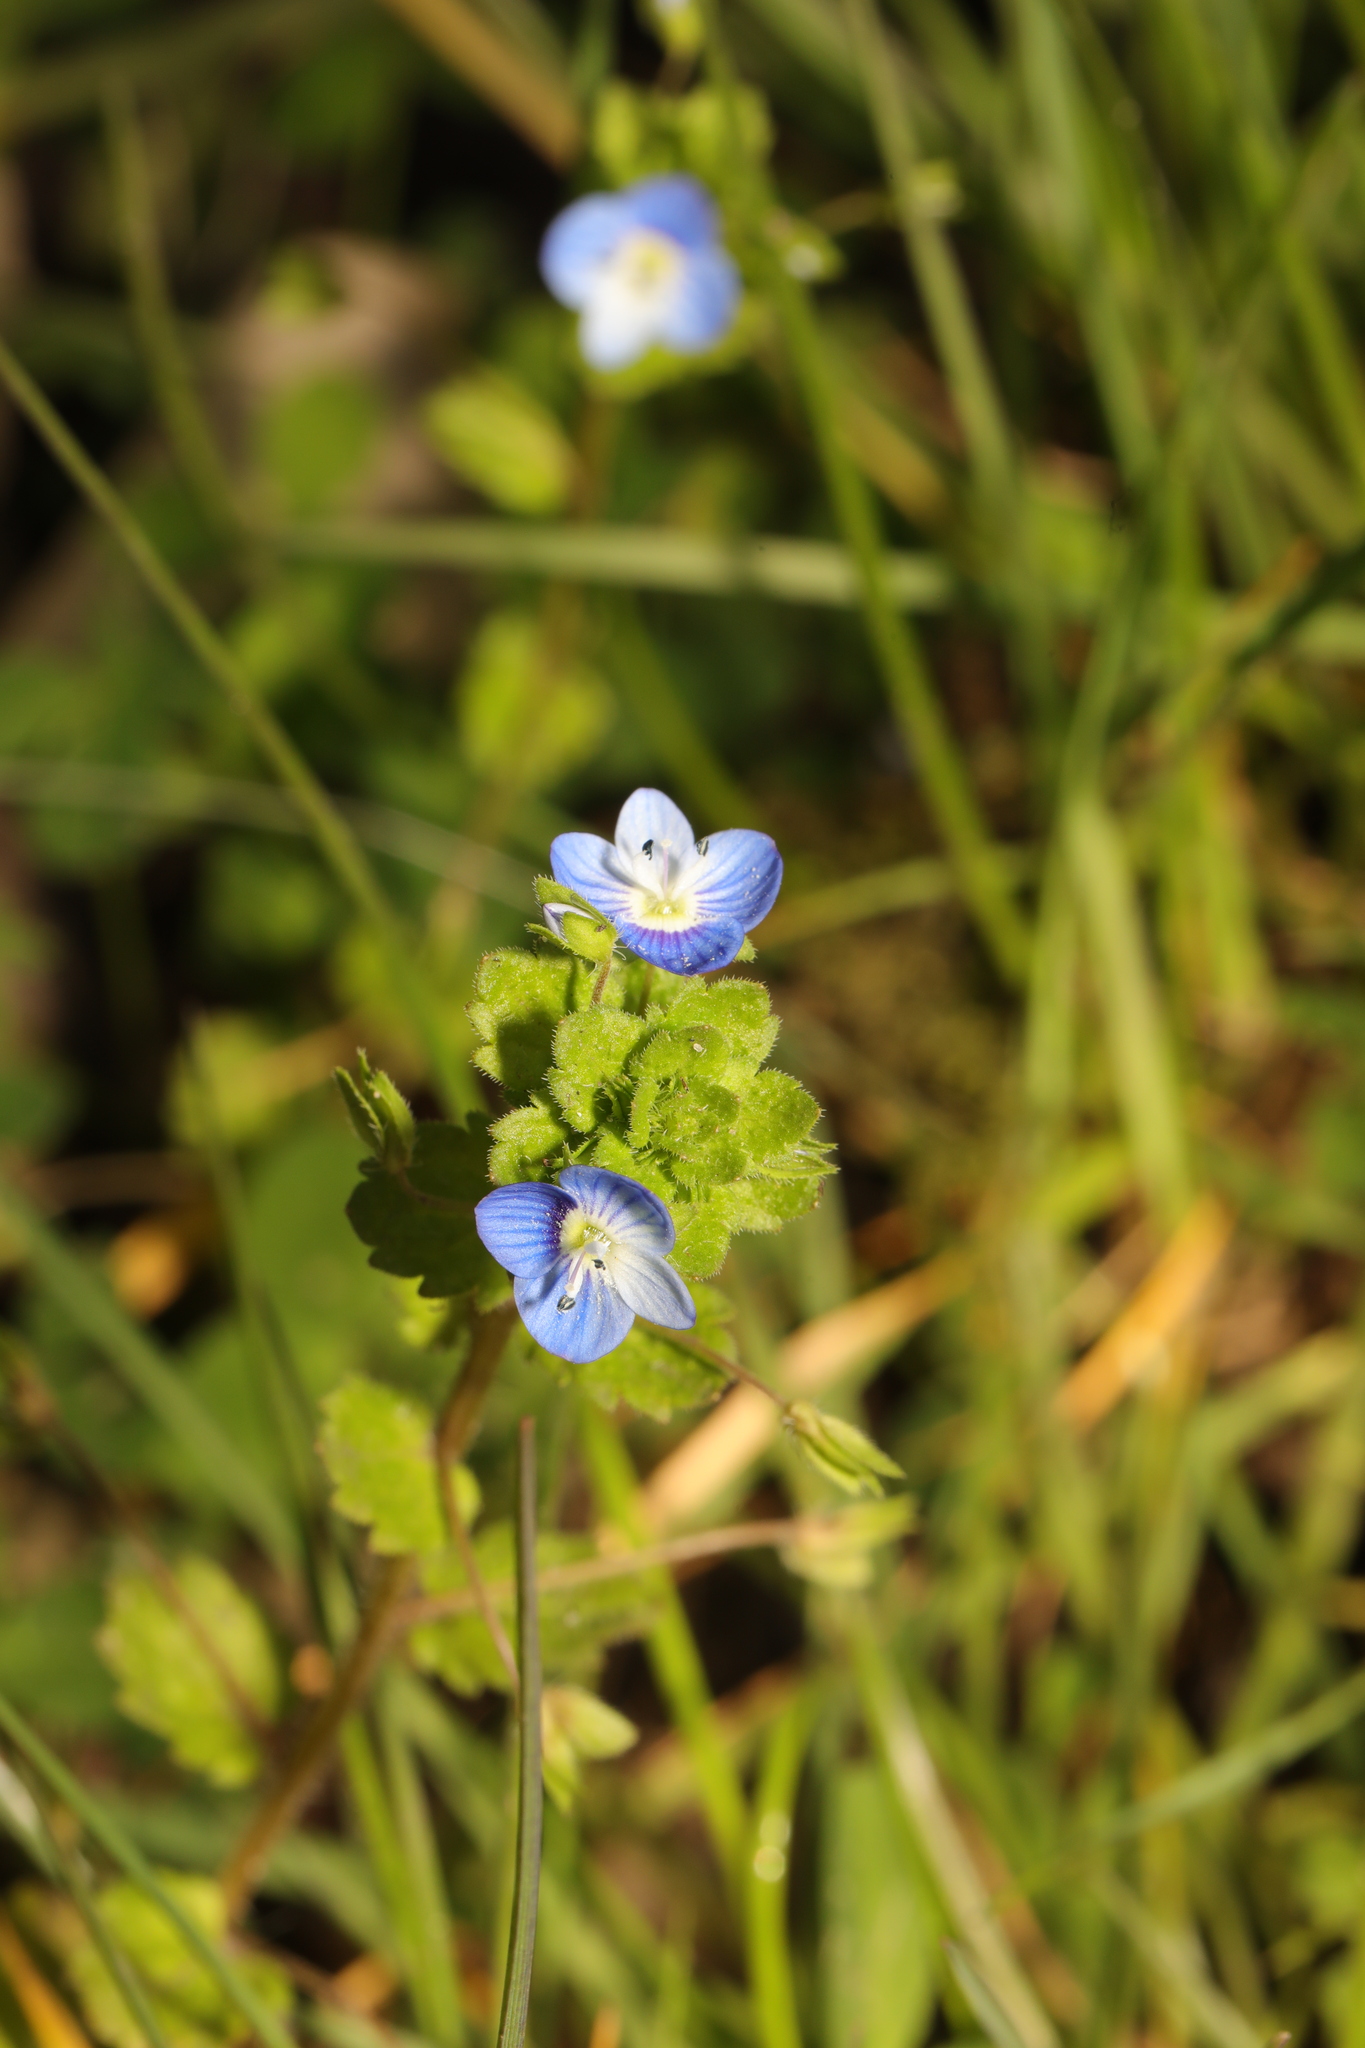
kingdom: Plantae
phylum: Tracheophyta
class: Magnoliopsida
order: Lamiales
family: Plantaginaceae
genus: Veronica
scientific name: Veronica persica
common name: Common field-speedwell
